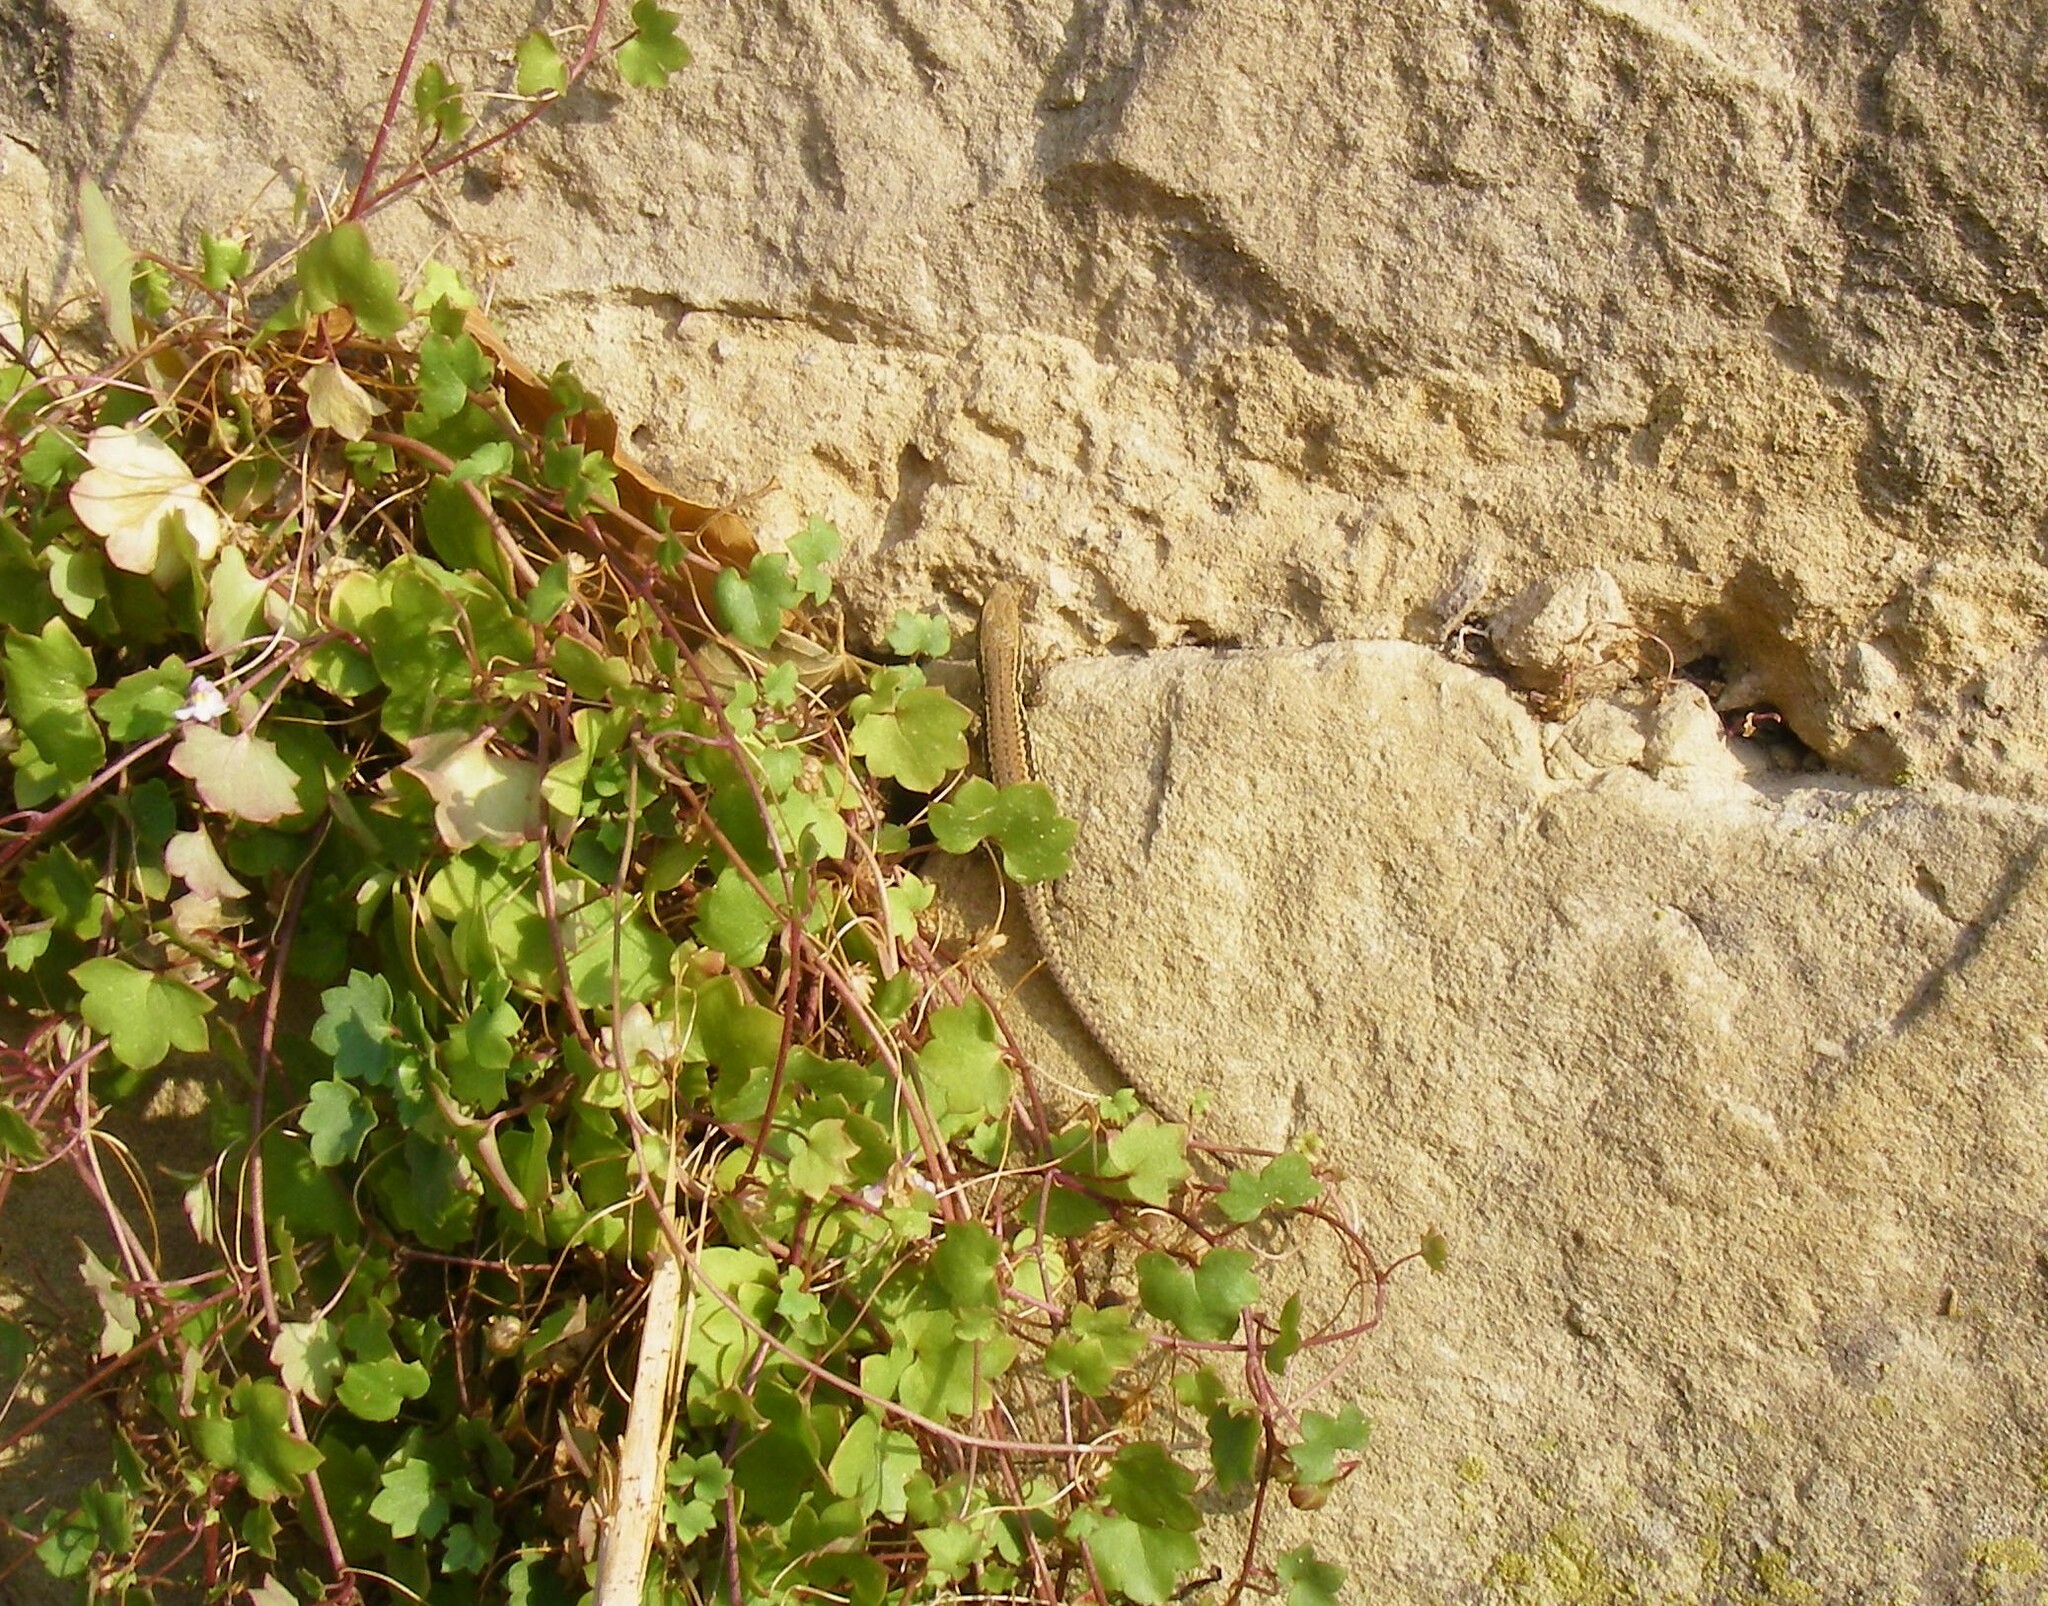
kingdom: Animalia
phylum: Chordata
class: Squamata
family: Lacertidae
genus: Podarcis
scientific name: Podarcis muralis
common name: Common wall lizard
